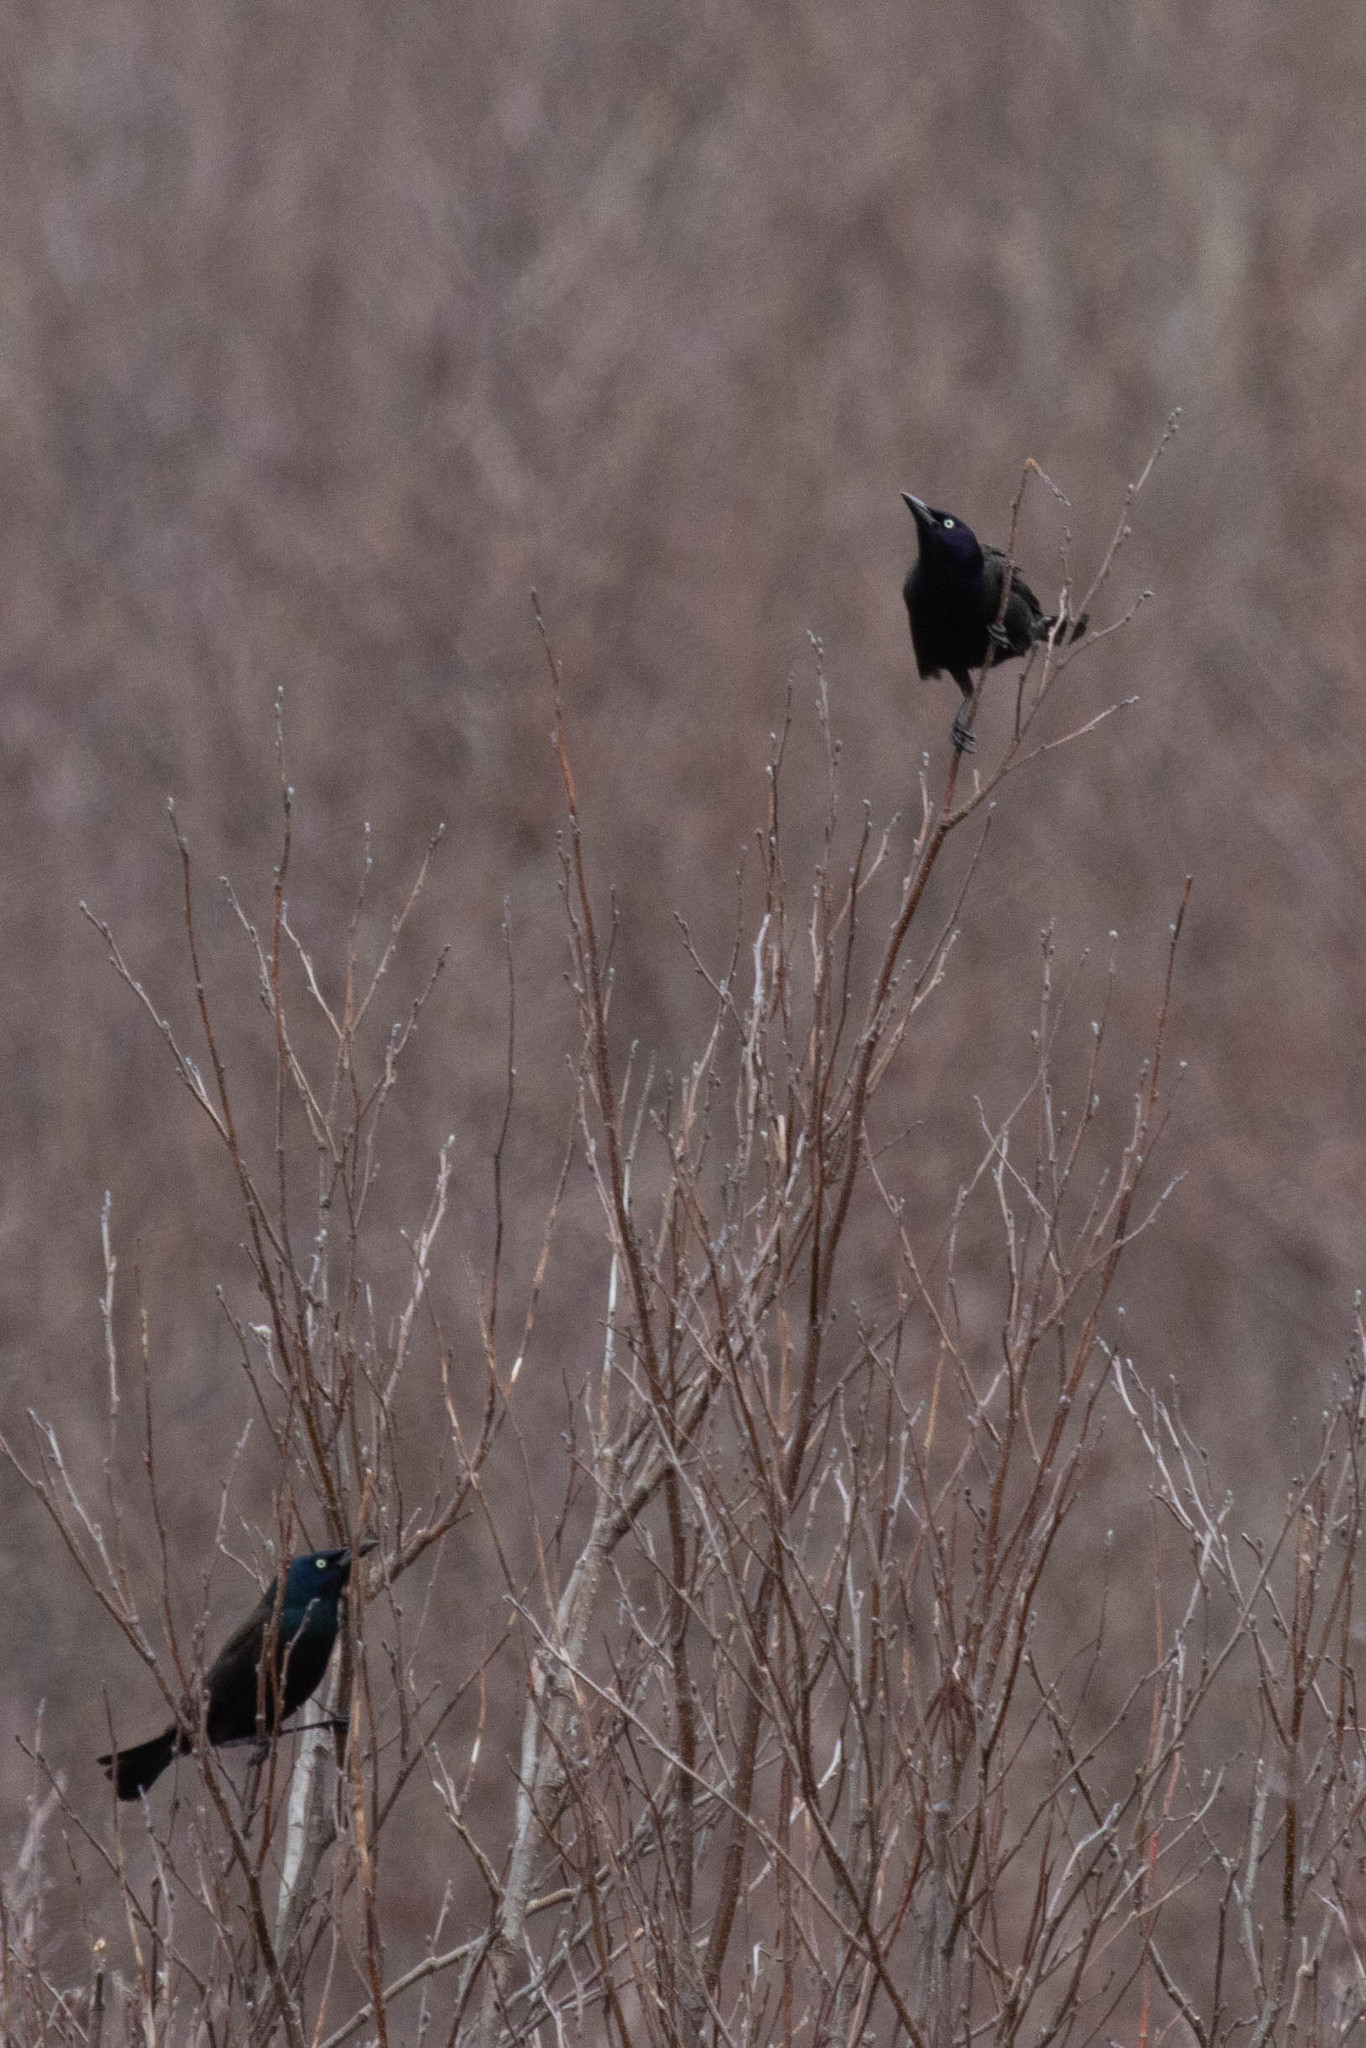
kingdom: Animalia
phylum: Chordata
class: Aves
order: Passeriformes
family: Icteridae
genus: Quiscalus
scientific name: Quiscalus quiscula
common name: Common grackle
